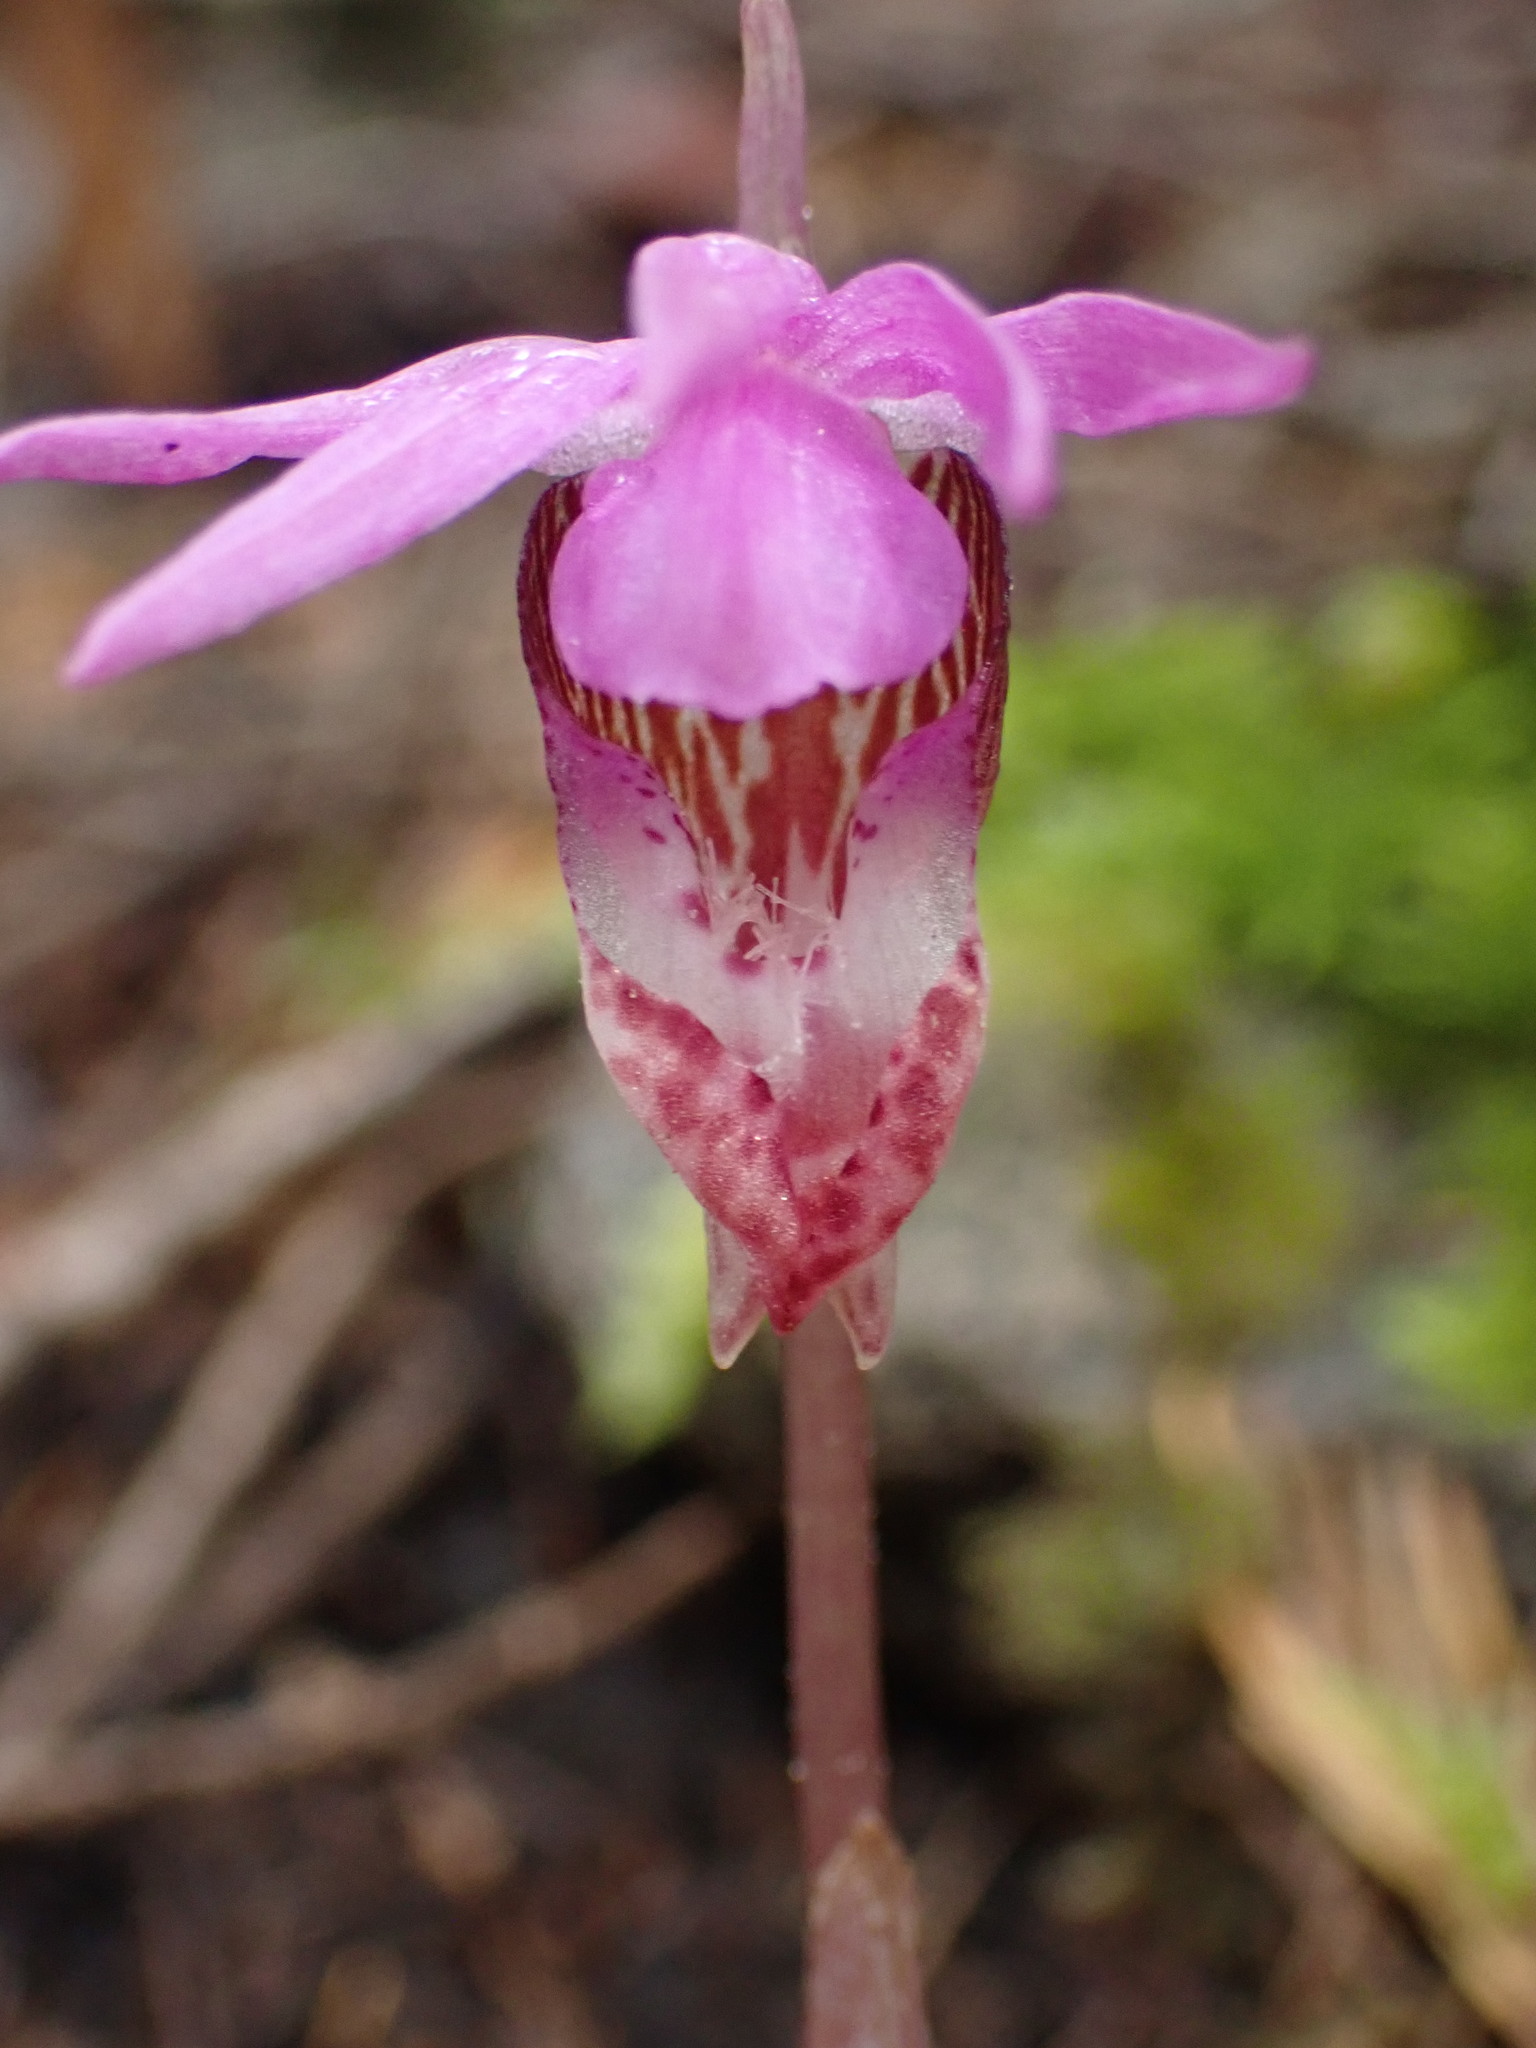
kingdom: Plantae
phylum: Tracheophyta
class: Liliopsida
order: Asparagales
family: Orchidaceae
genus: Calypso
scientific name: Calypso bulbosa
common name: Calypso
